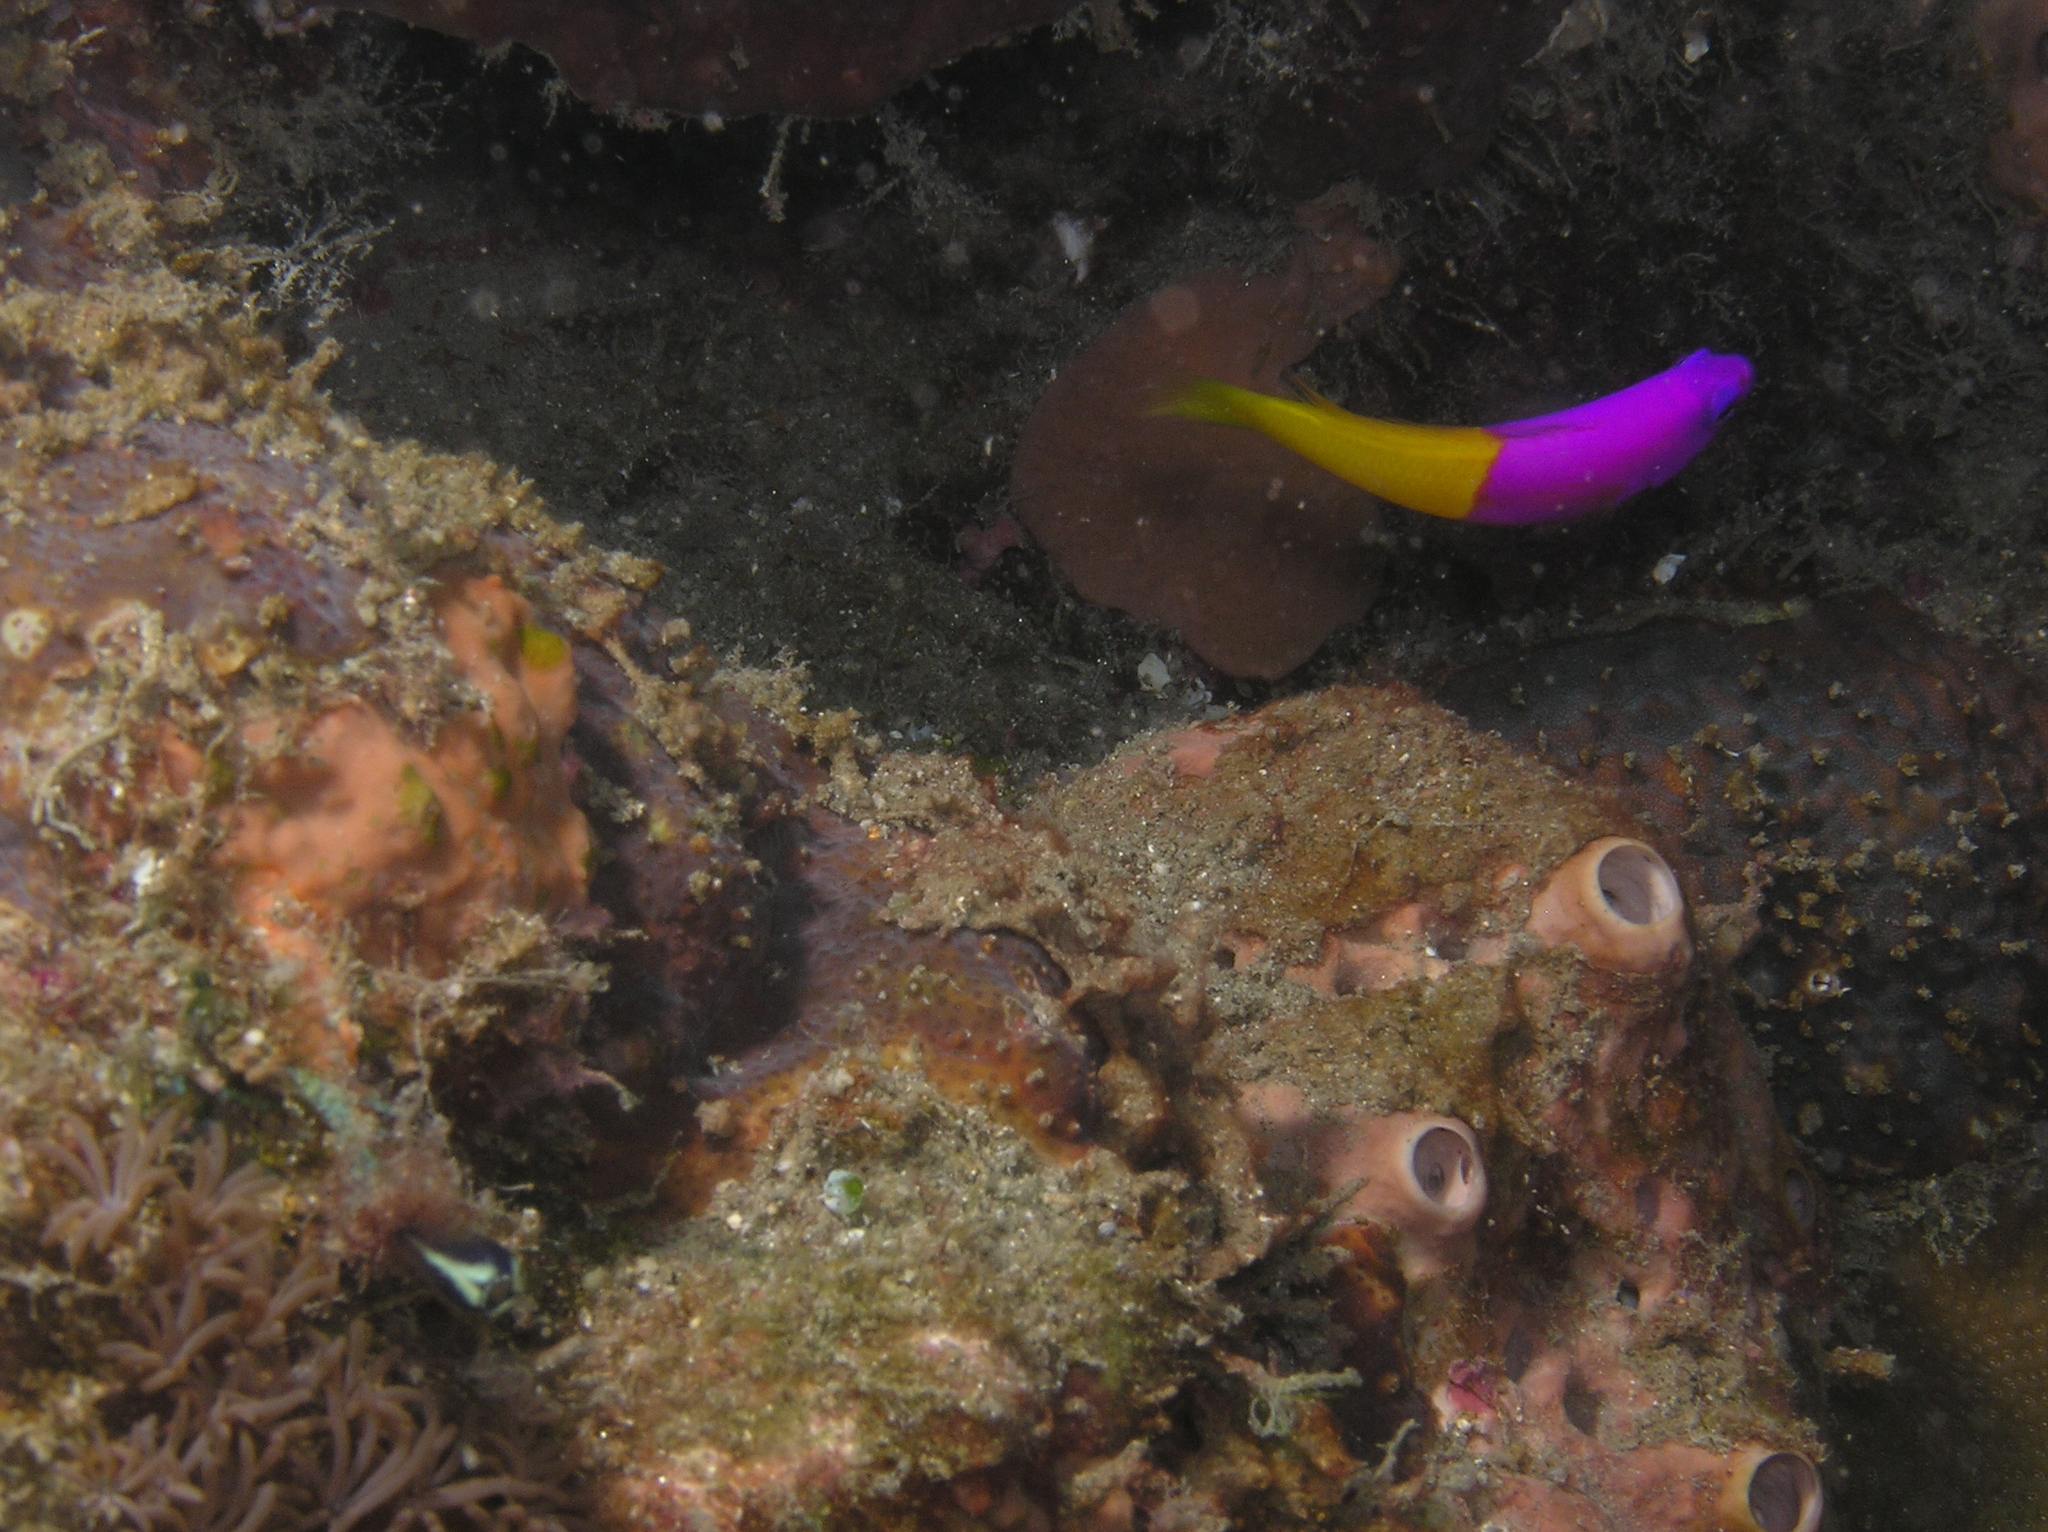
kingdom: Animalia
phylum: Chordata
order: Perciformes
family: Pseudochromidae
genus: Pictichromis
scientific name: Pictichromis paccagnellae
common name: Royal dottyback
